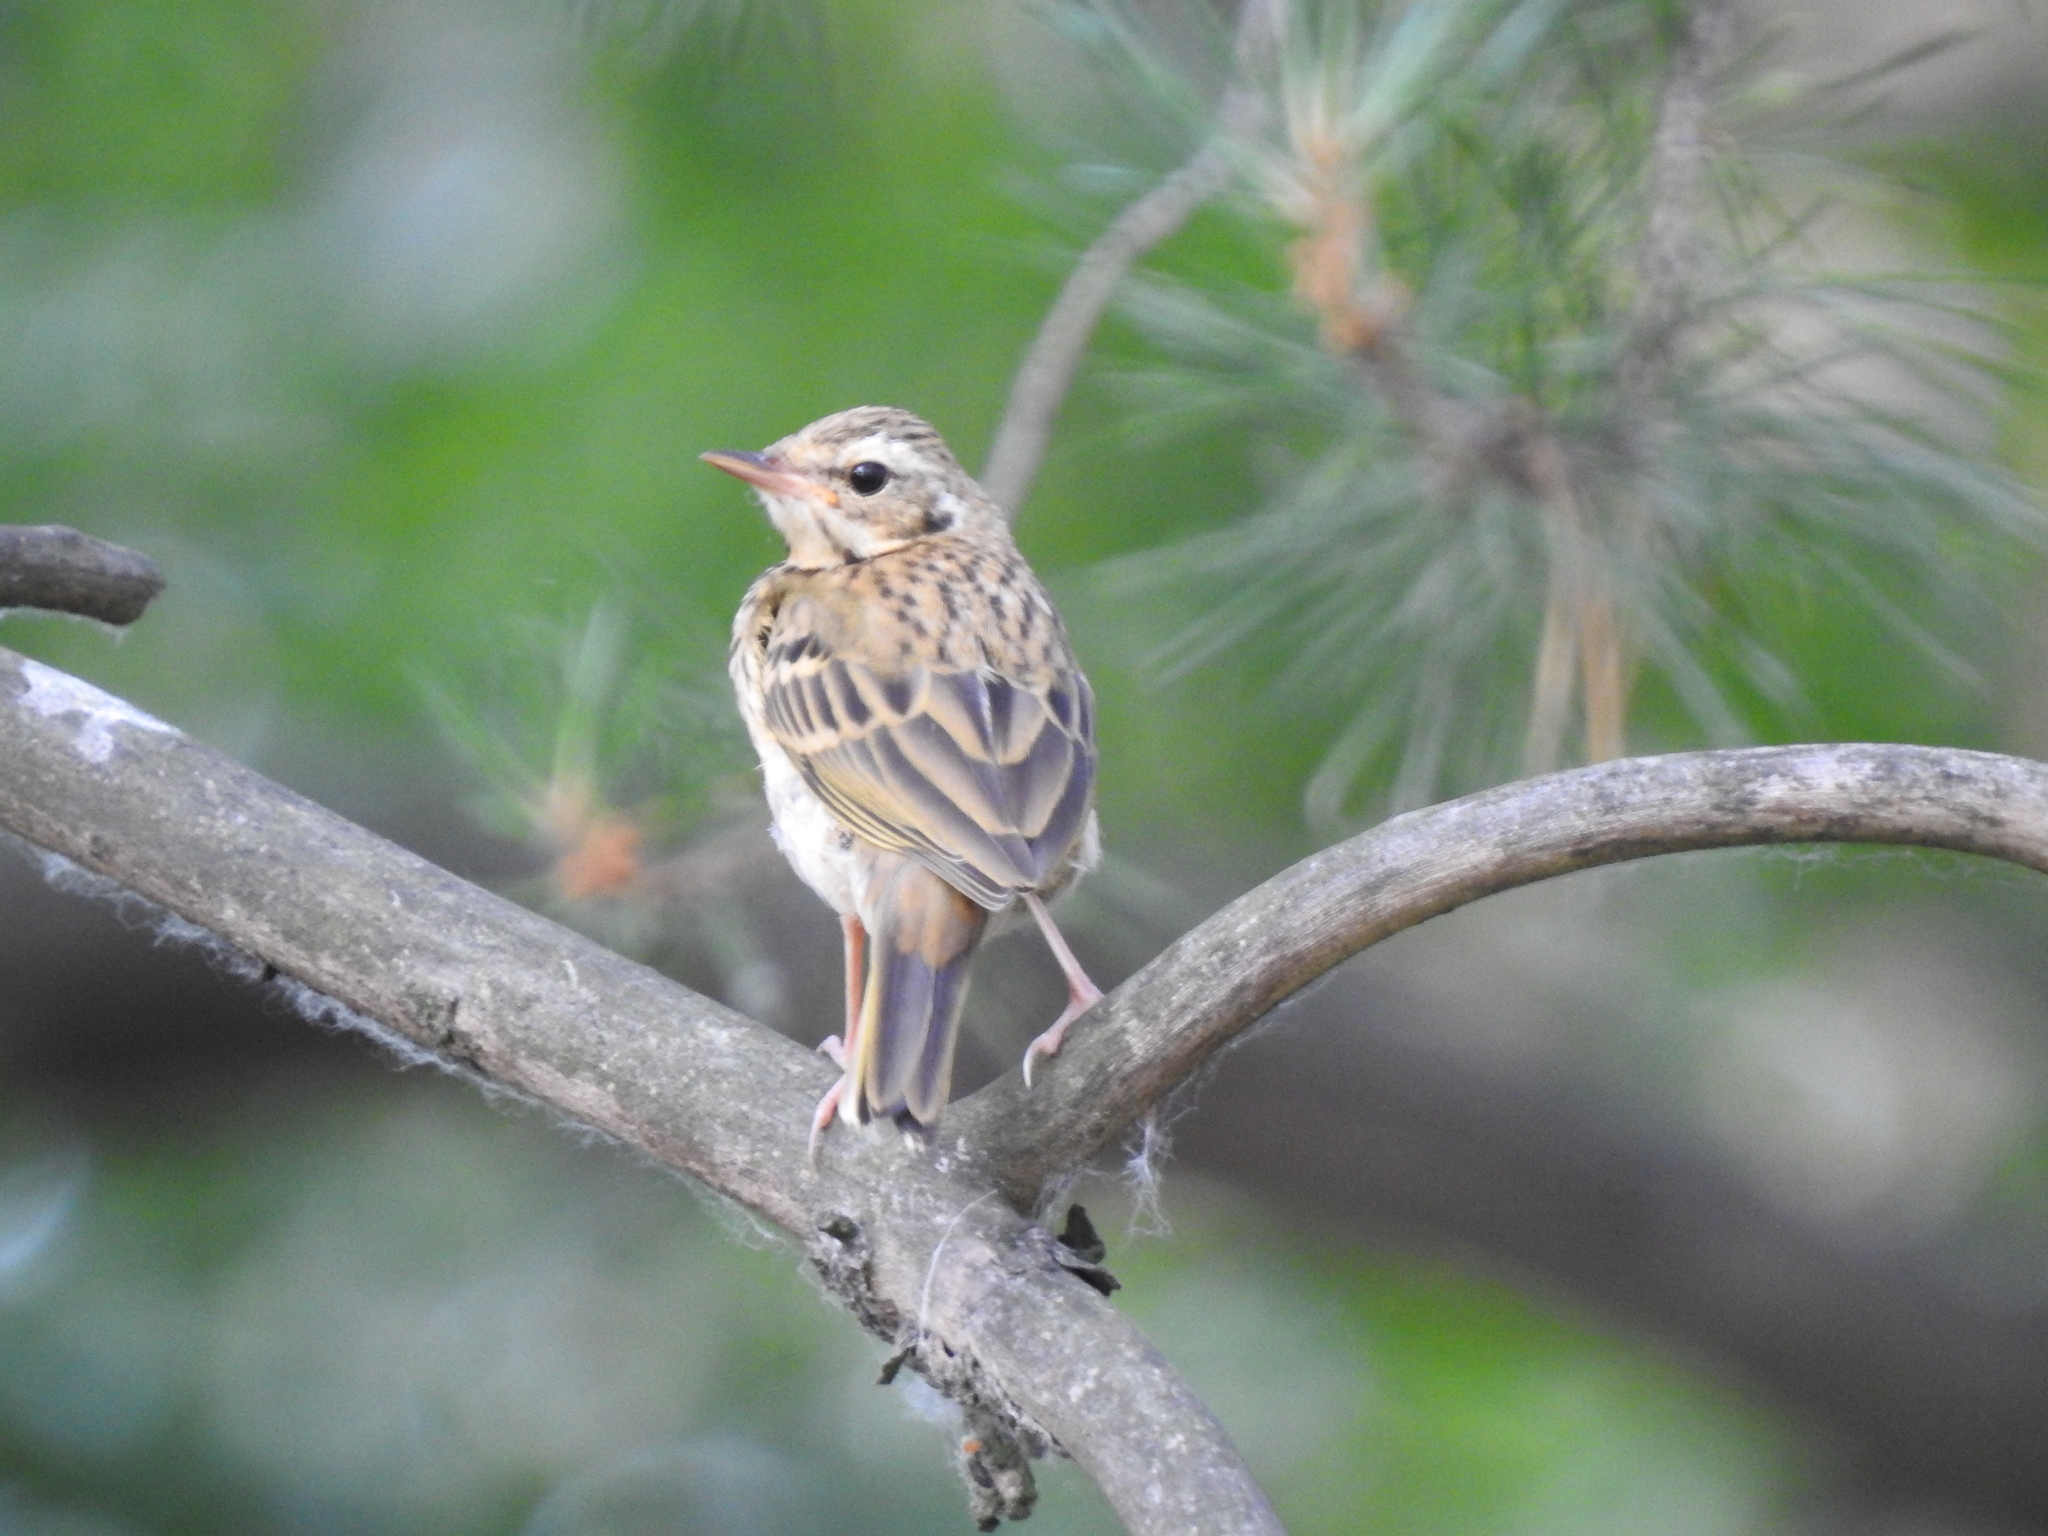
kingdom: Animalia
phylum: Chordata
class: Aves
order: Passeriformes
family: Motacillidae
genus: Anthus
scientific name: Anthus hodgsoni
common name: Olive-backed pipit
